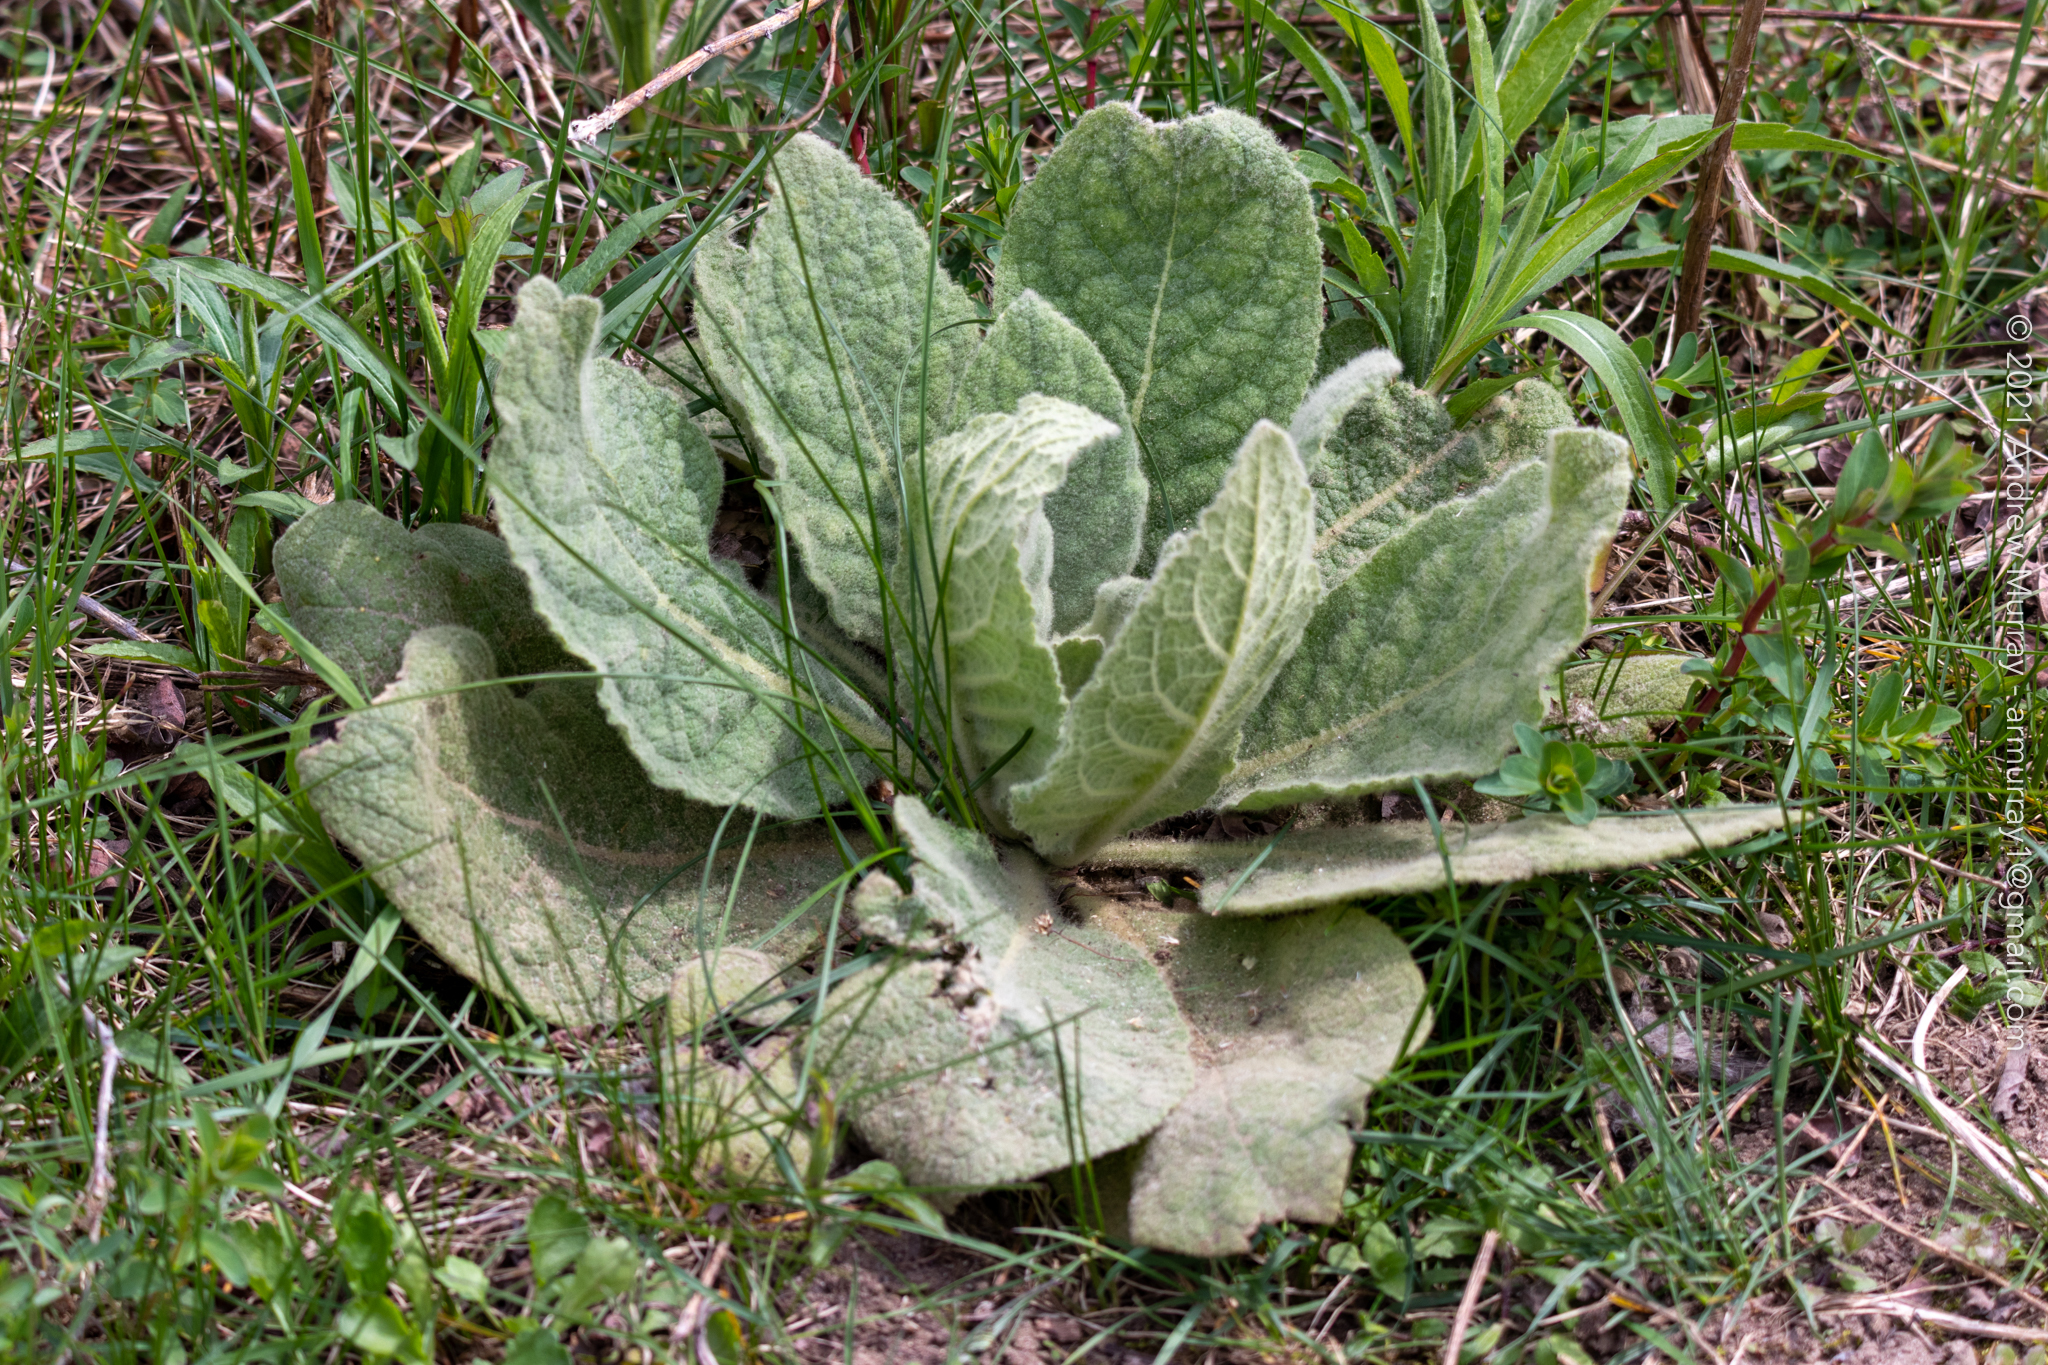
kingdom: Plantae
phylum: Tracheophyta
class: Magnoliopsida
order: Lamiales
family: Scrophulariaceae
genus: Verbascum
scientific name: Verbascum thapsus
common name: Common mullein
